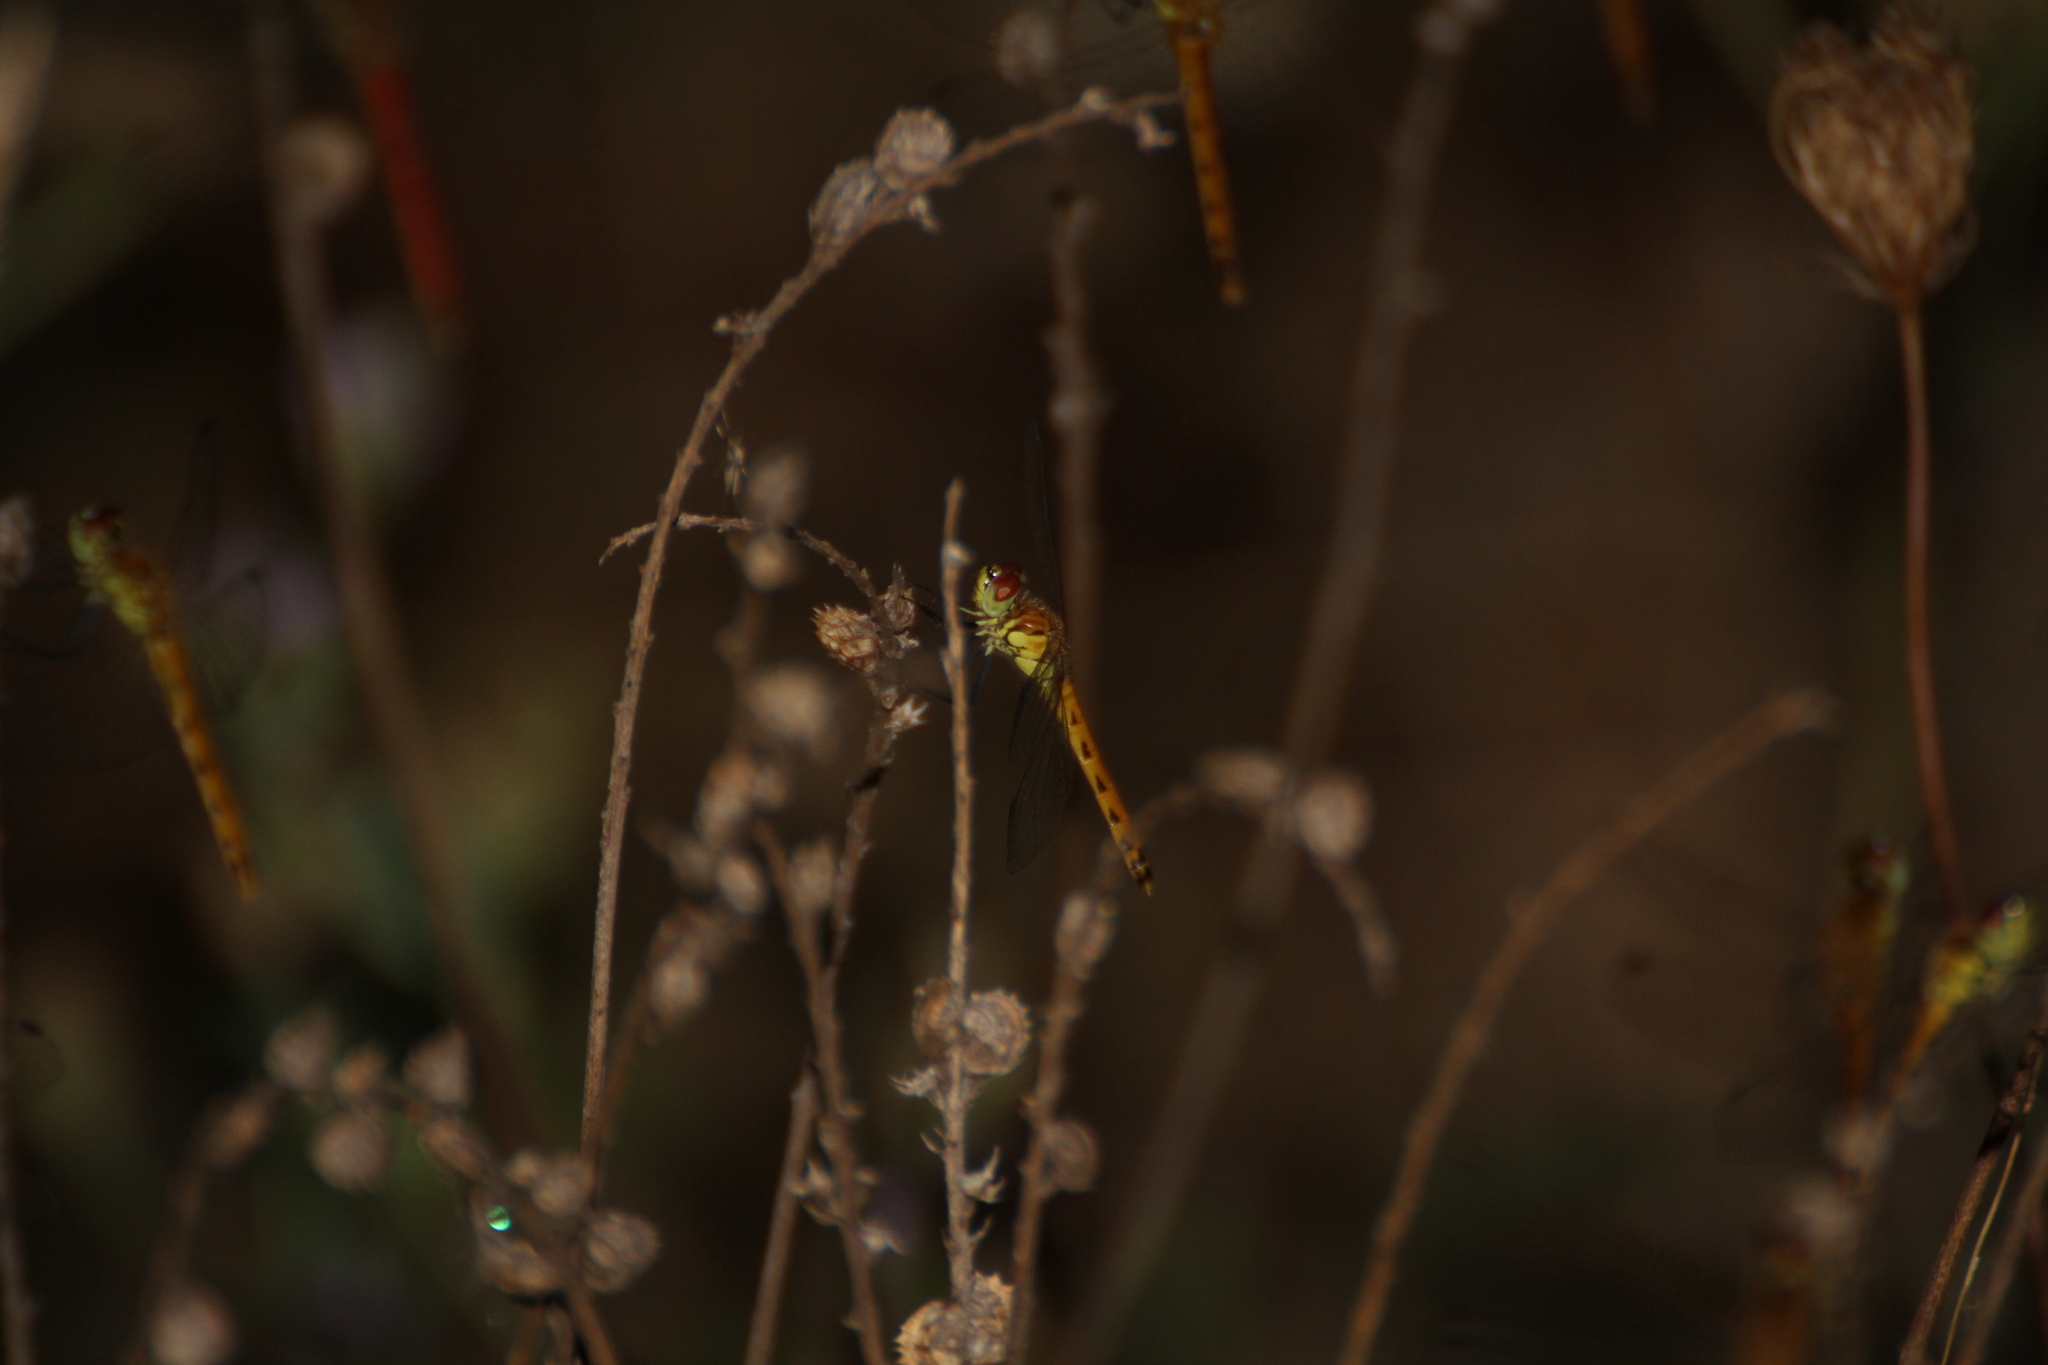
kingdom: Animalia
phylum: Arthropoda
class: Insecta
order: Odonata
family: Libellulidae
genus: Sympetrum
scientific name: Sympetrum depressiusculum
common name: Spotted darter
